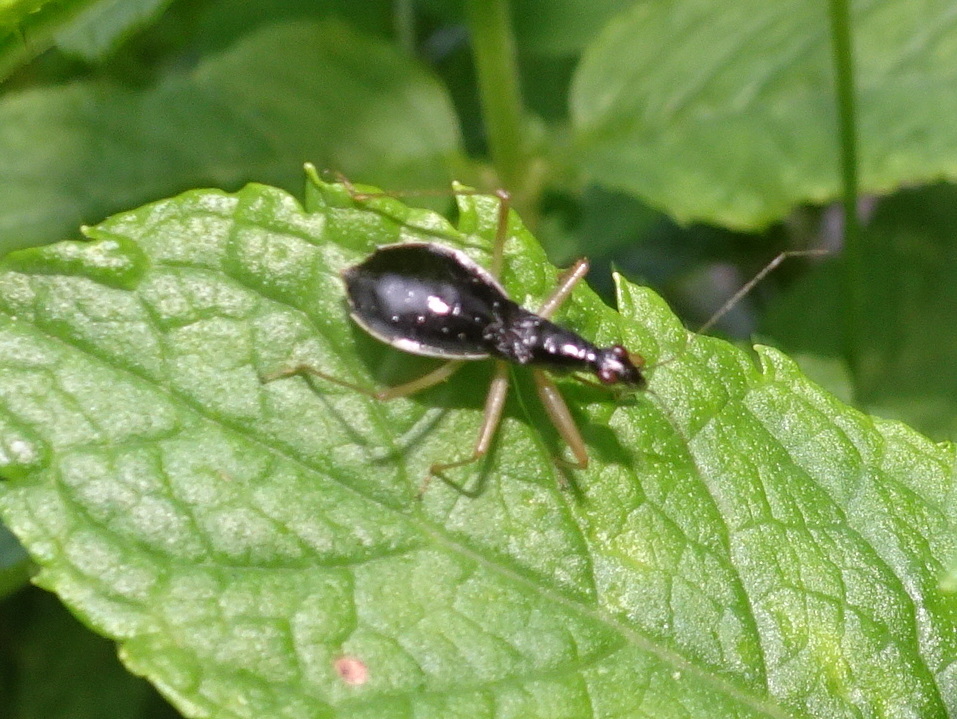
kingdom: Animalia
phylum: Arthropoda
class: Insecta
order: Hemiptera
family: Nabidae
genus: Nabis
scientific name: Nabis
